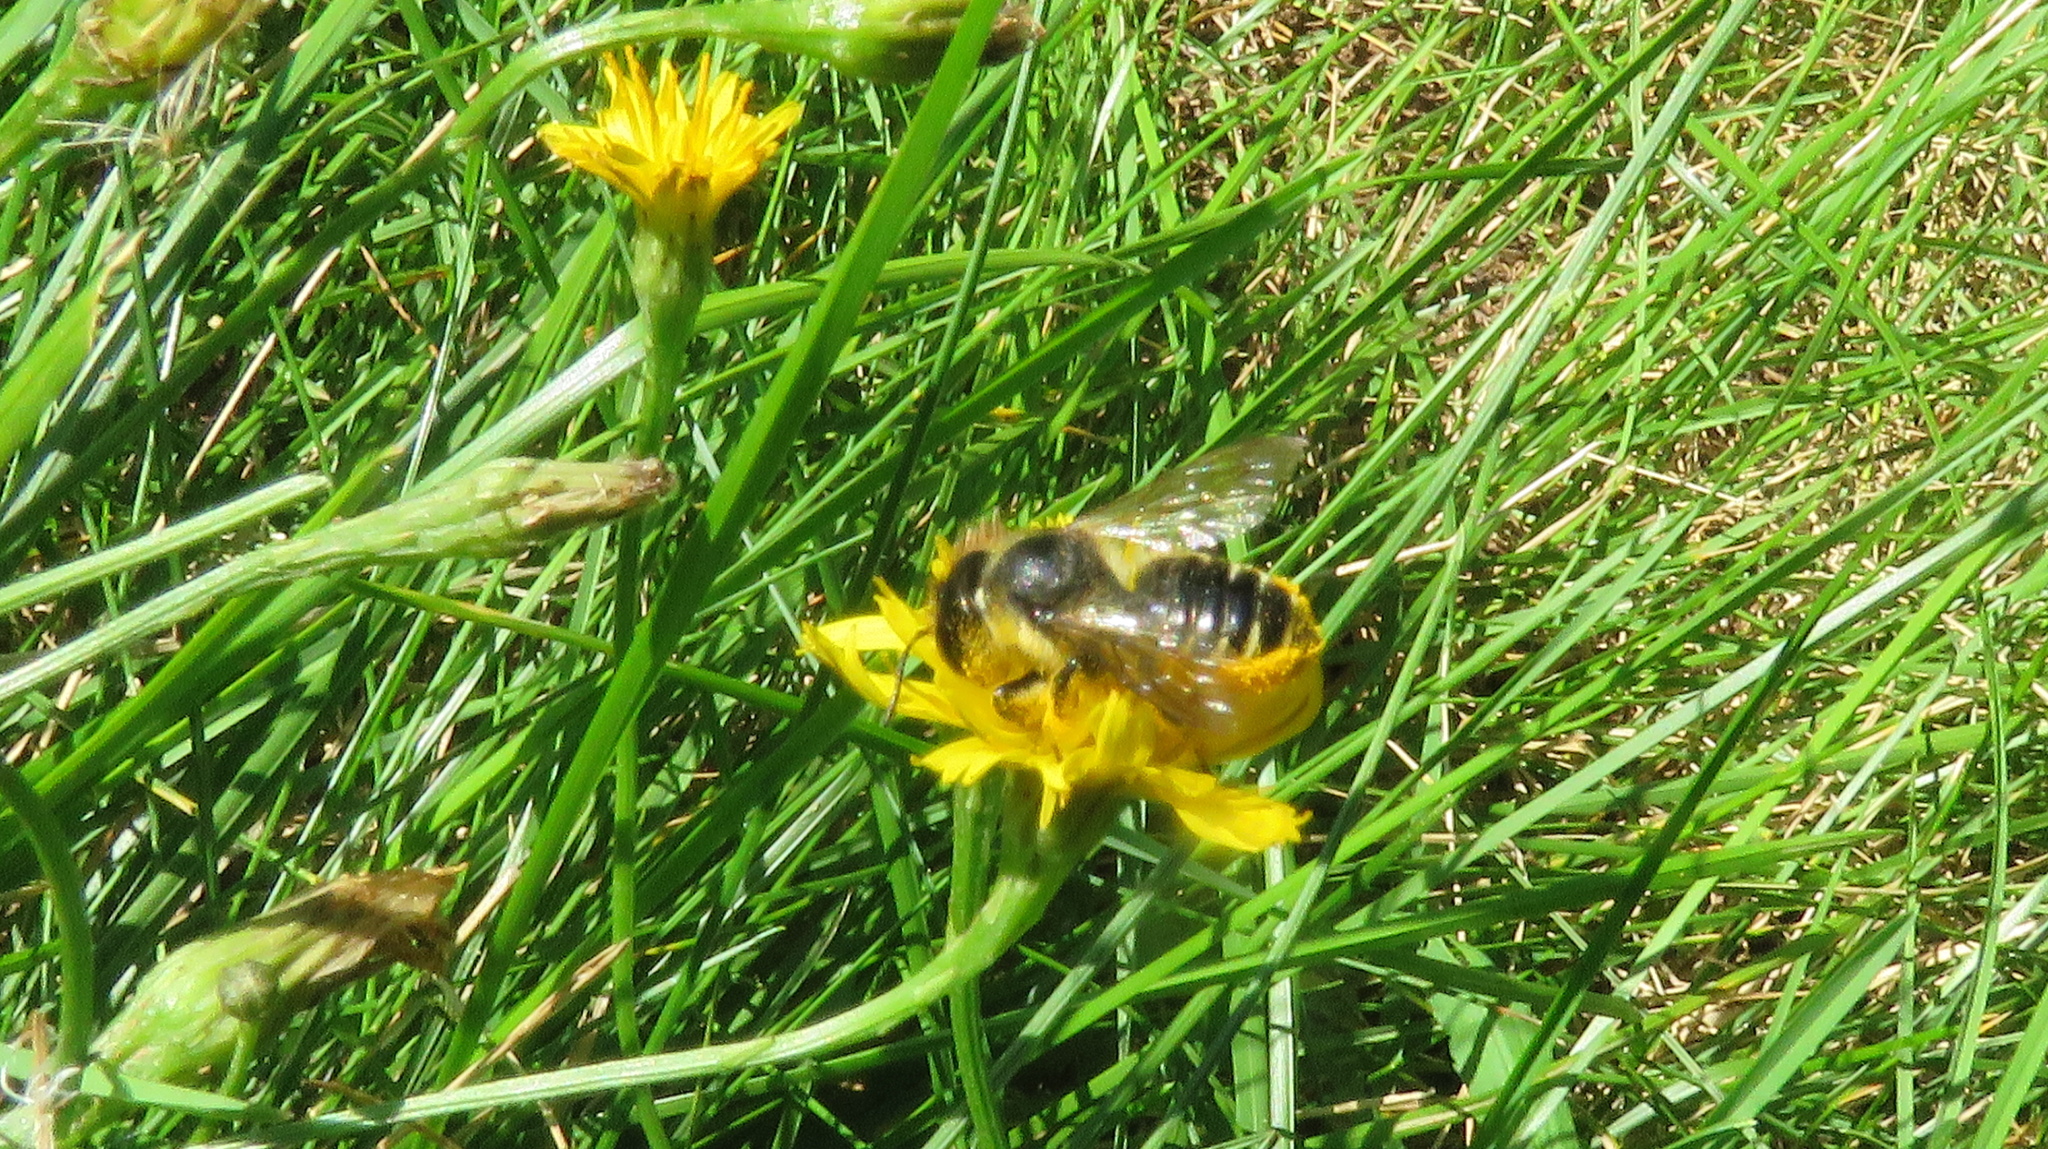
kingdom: Animalia
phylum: Arthropoda
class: Insecta
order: Hymenoptera
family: Megachilidae
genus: Megachile
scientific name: Megachile inermis
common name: Unarmed leafcutter bee
